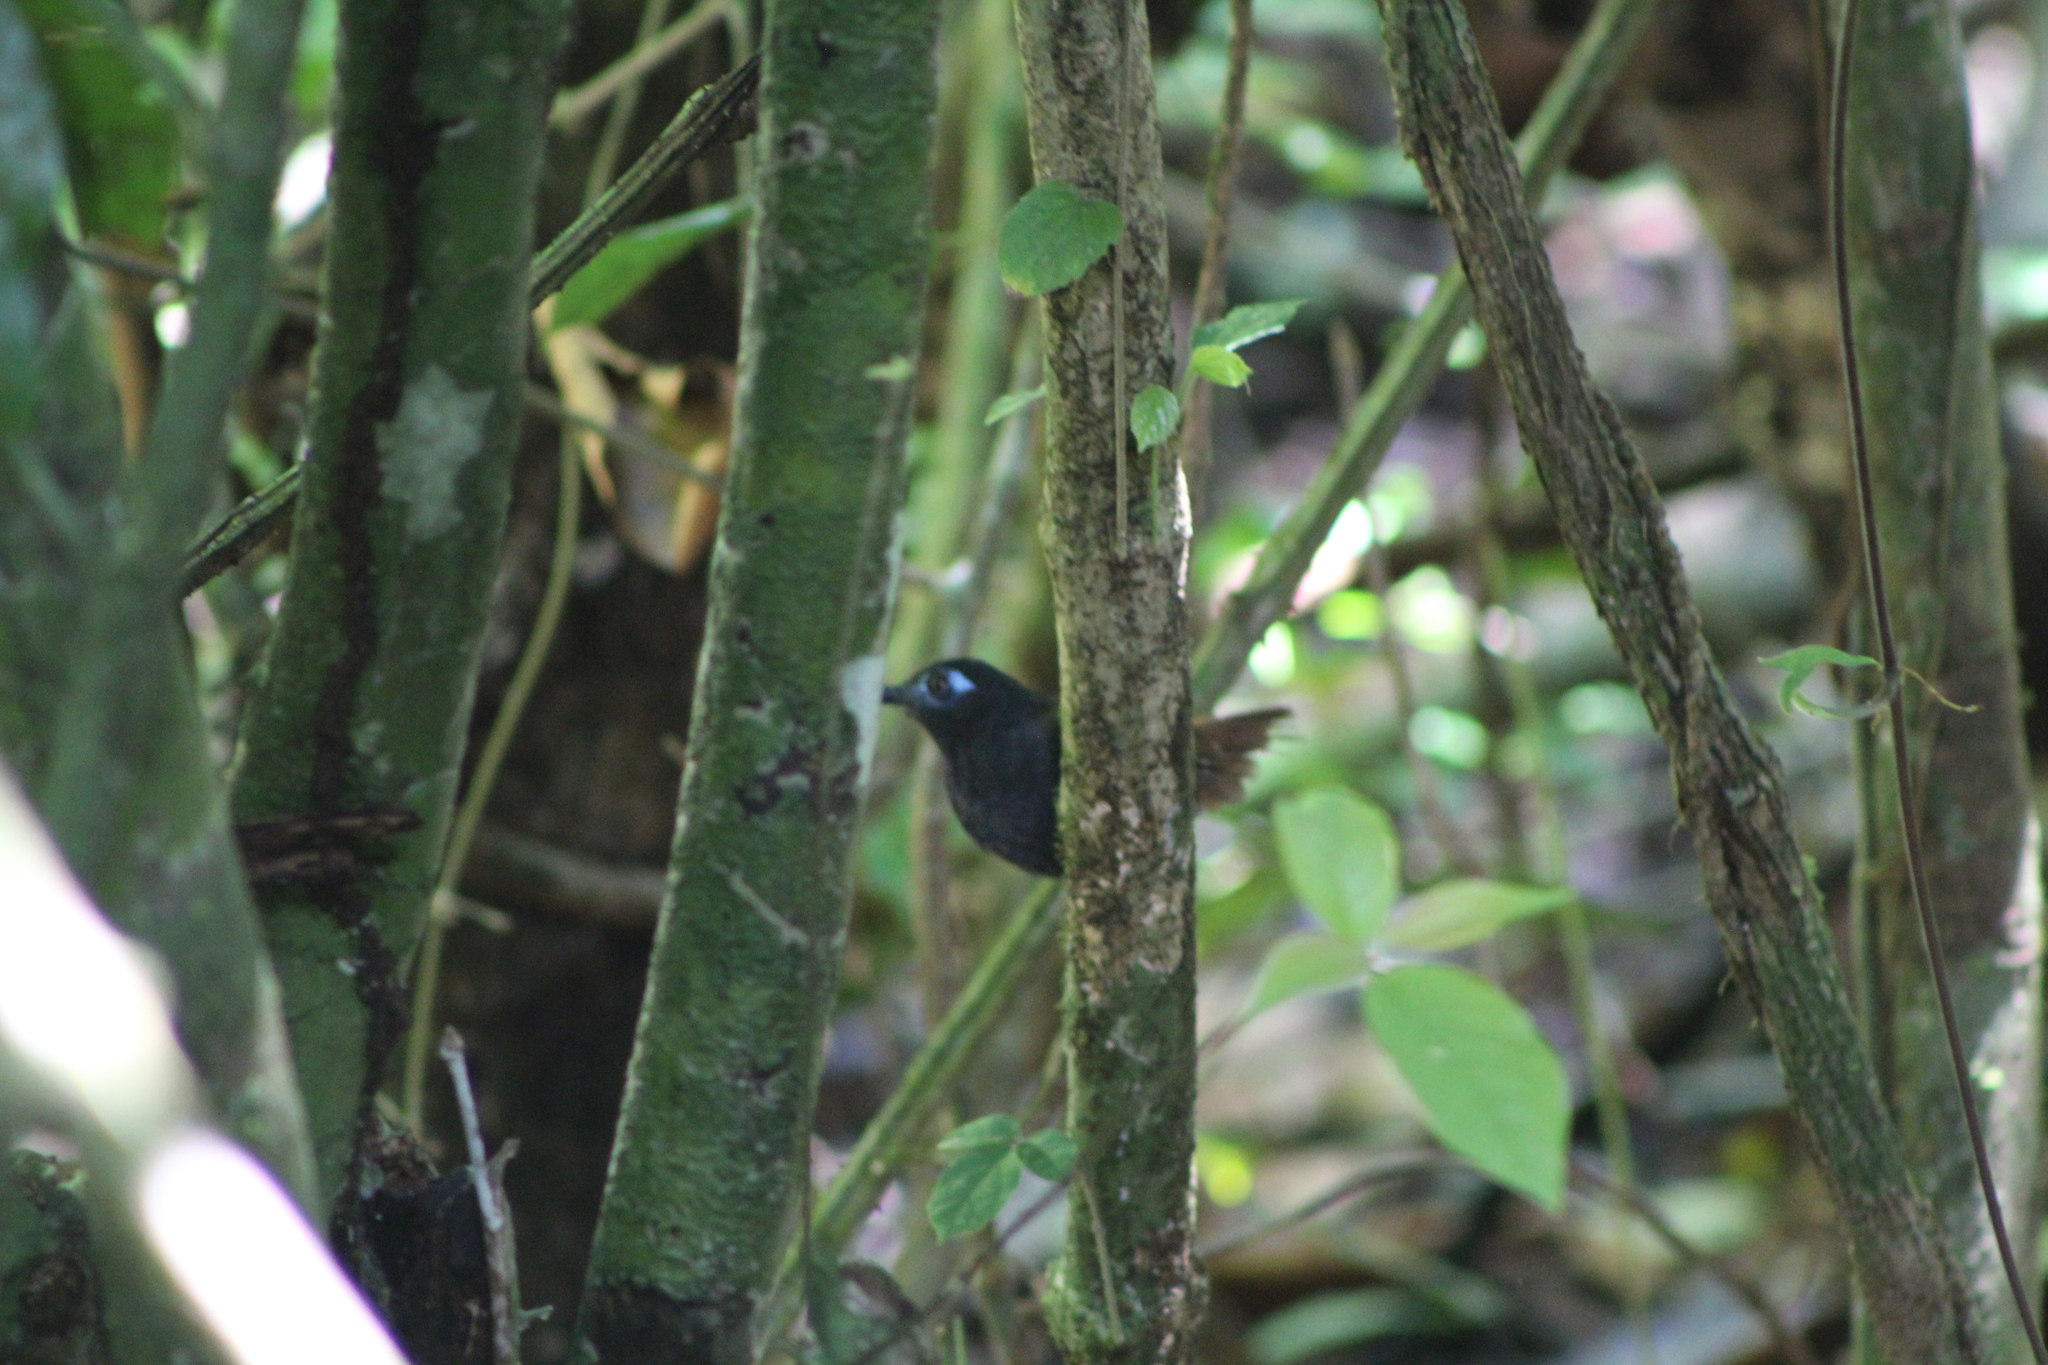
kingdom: Animalia
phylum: Chordata
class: Aves
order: Passeriformes
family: Thamnophilidae
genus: Myrmeciza
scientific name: Myrmeciza exsul
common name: Chestnut-backed antbird
